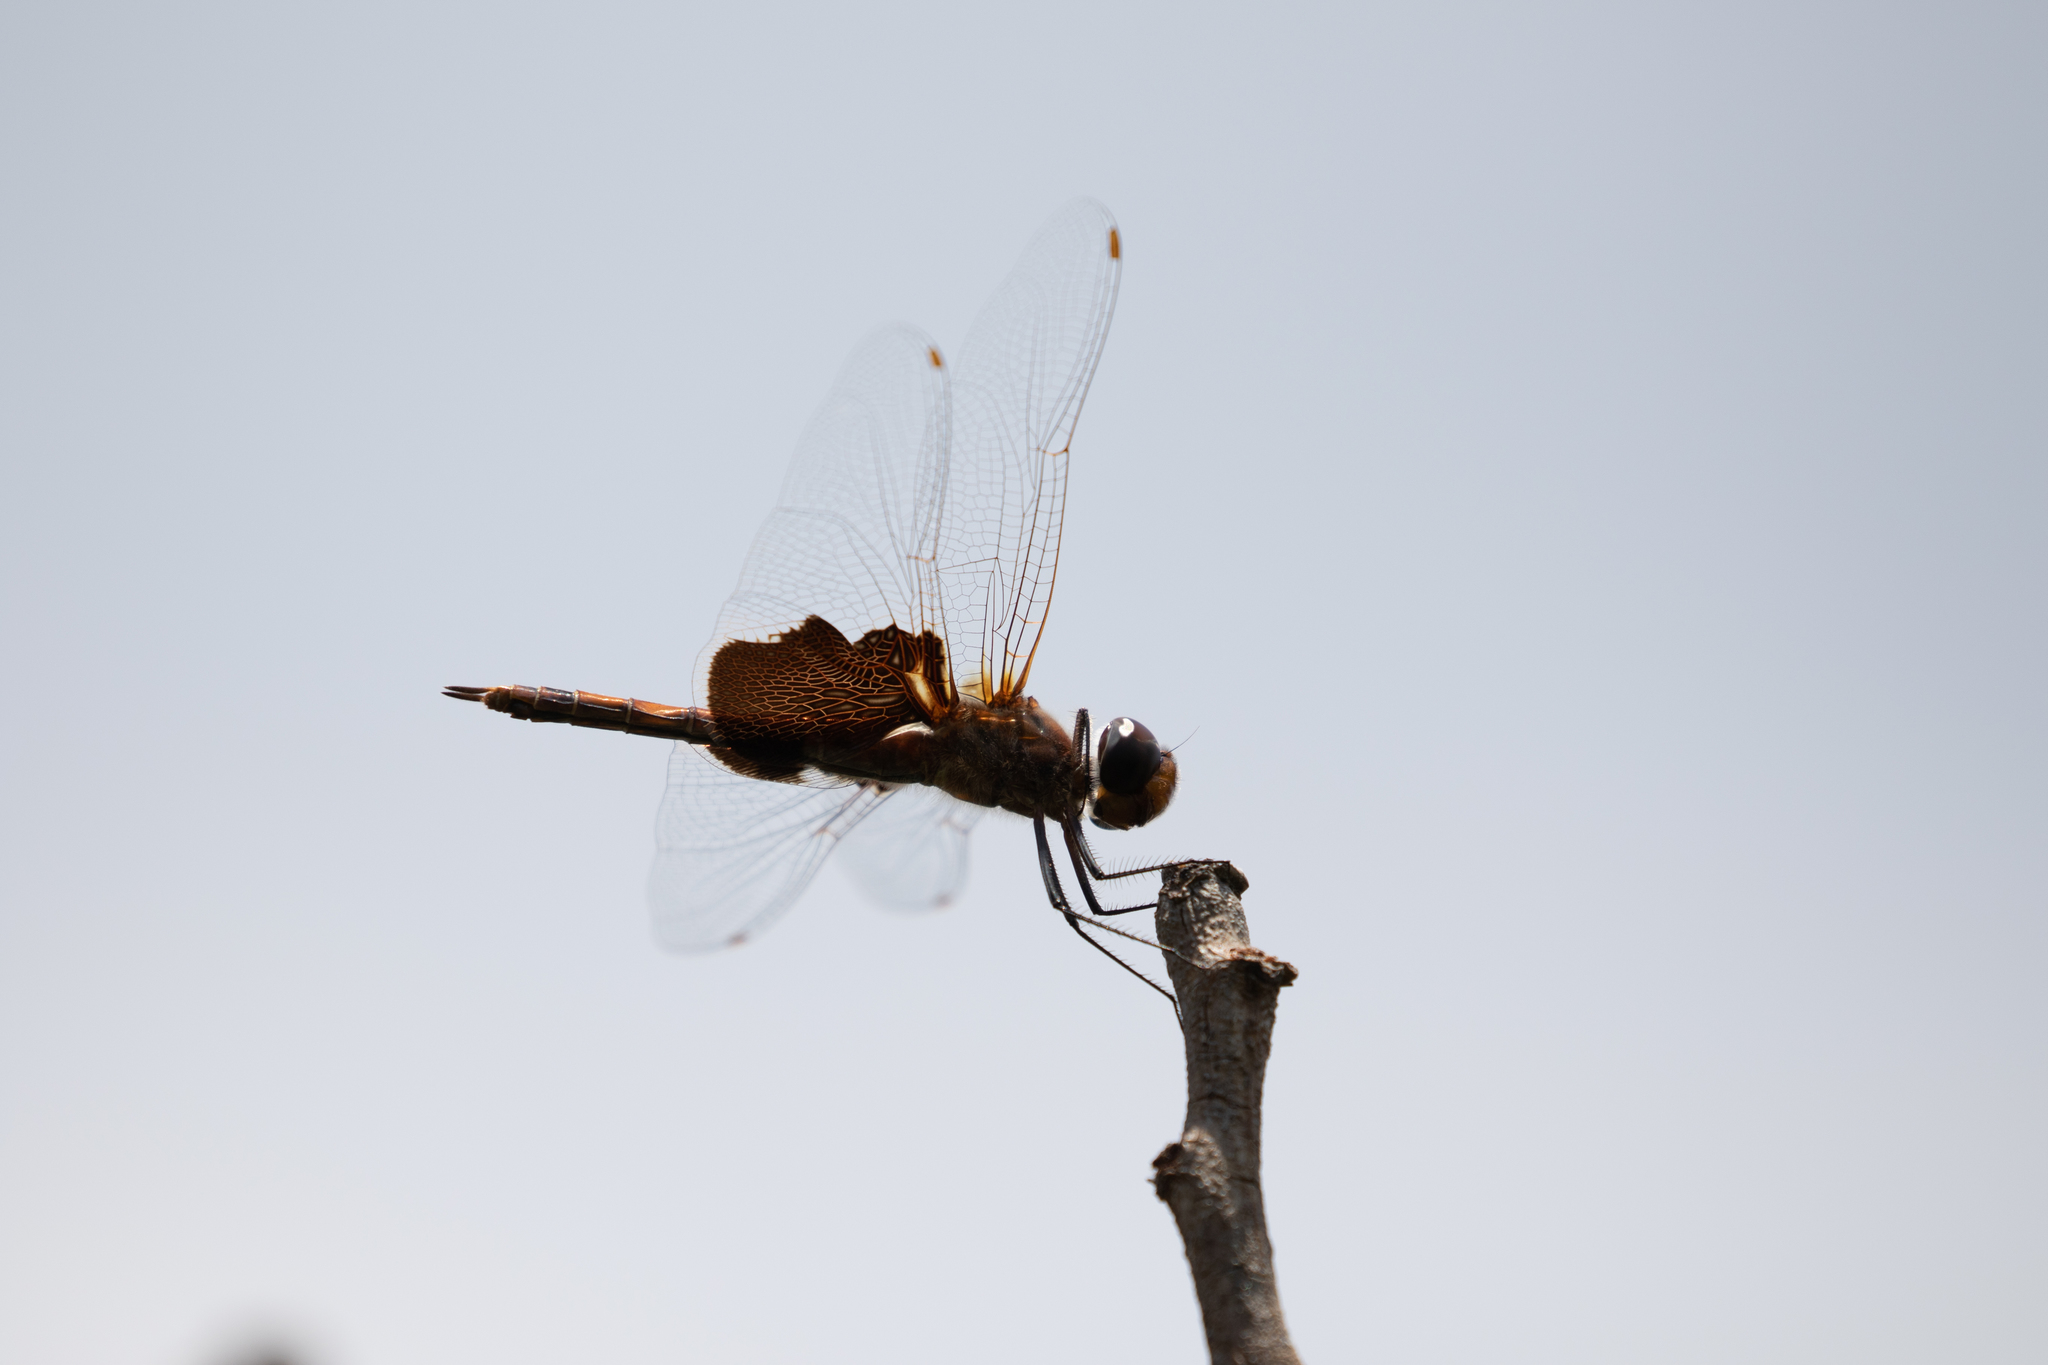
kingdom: Animalia
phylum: Arthropoda
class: Insecta
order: Odonata
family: Libellulidae
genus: Tramea
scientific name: Tramea carolina
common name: Carolina saddlebags
